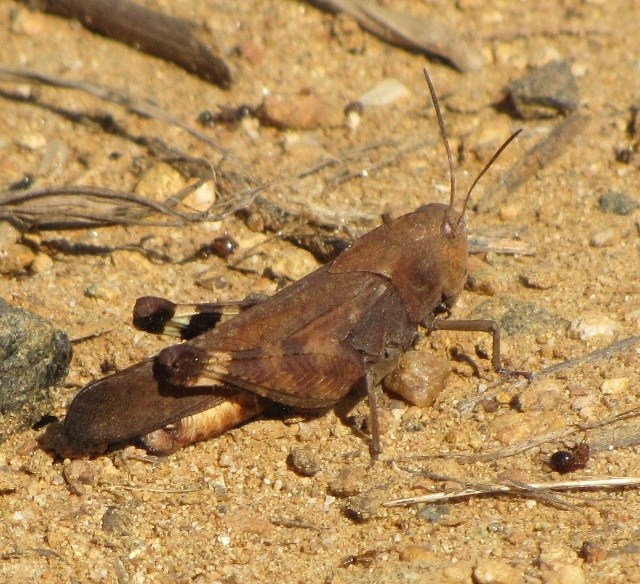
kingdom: Animalia
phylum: Arthropoda
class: Insecta
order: Orthoptera
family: Acrididae
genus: Arphia
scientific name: Arphia xanthoptera
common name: Autumn yellow-winged grasshopper
